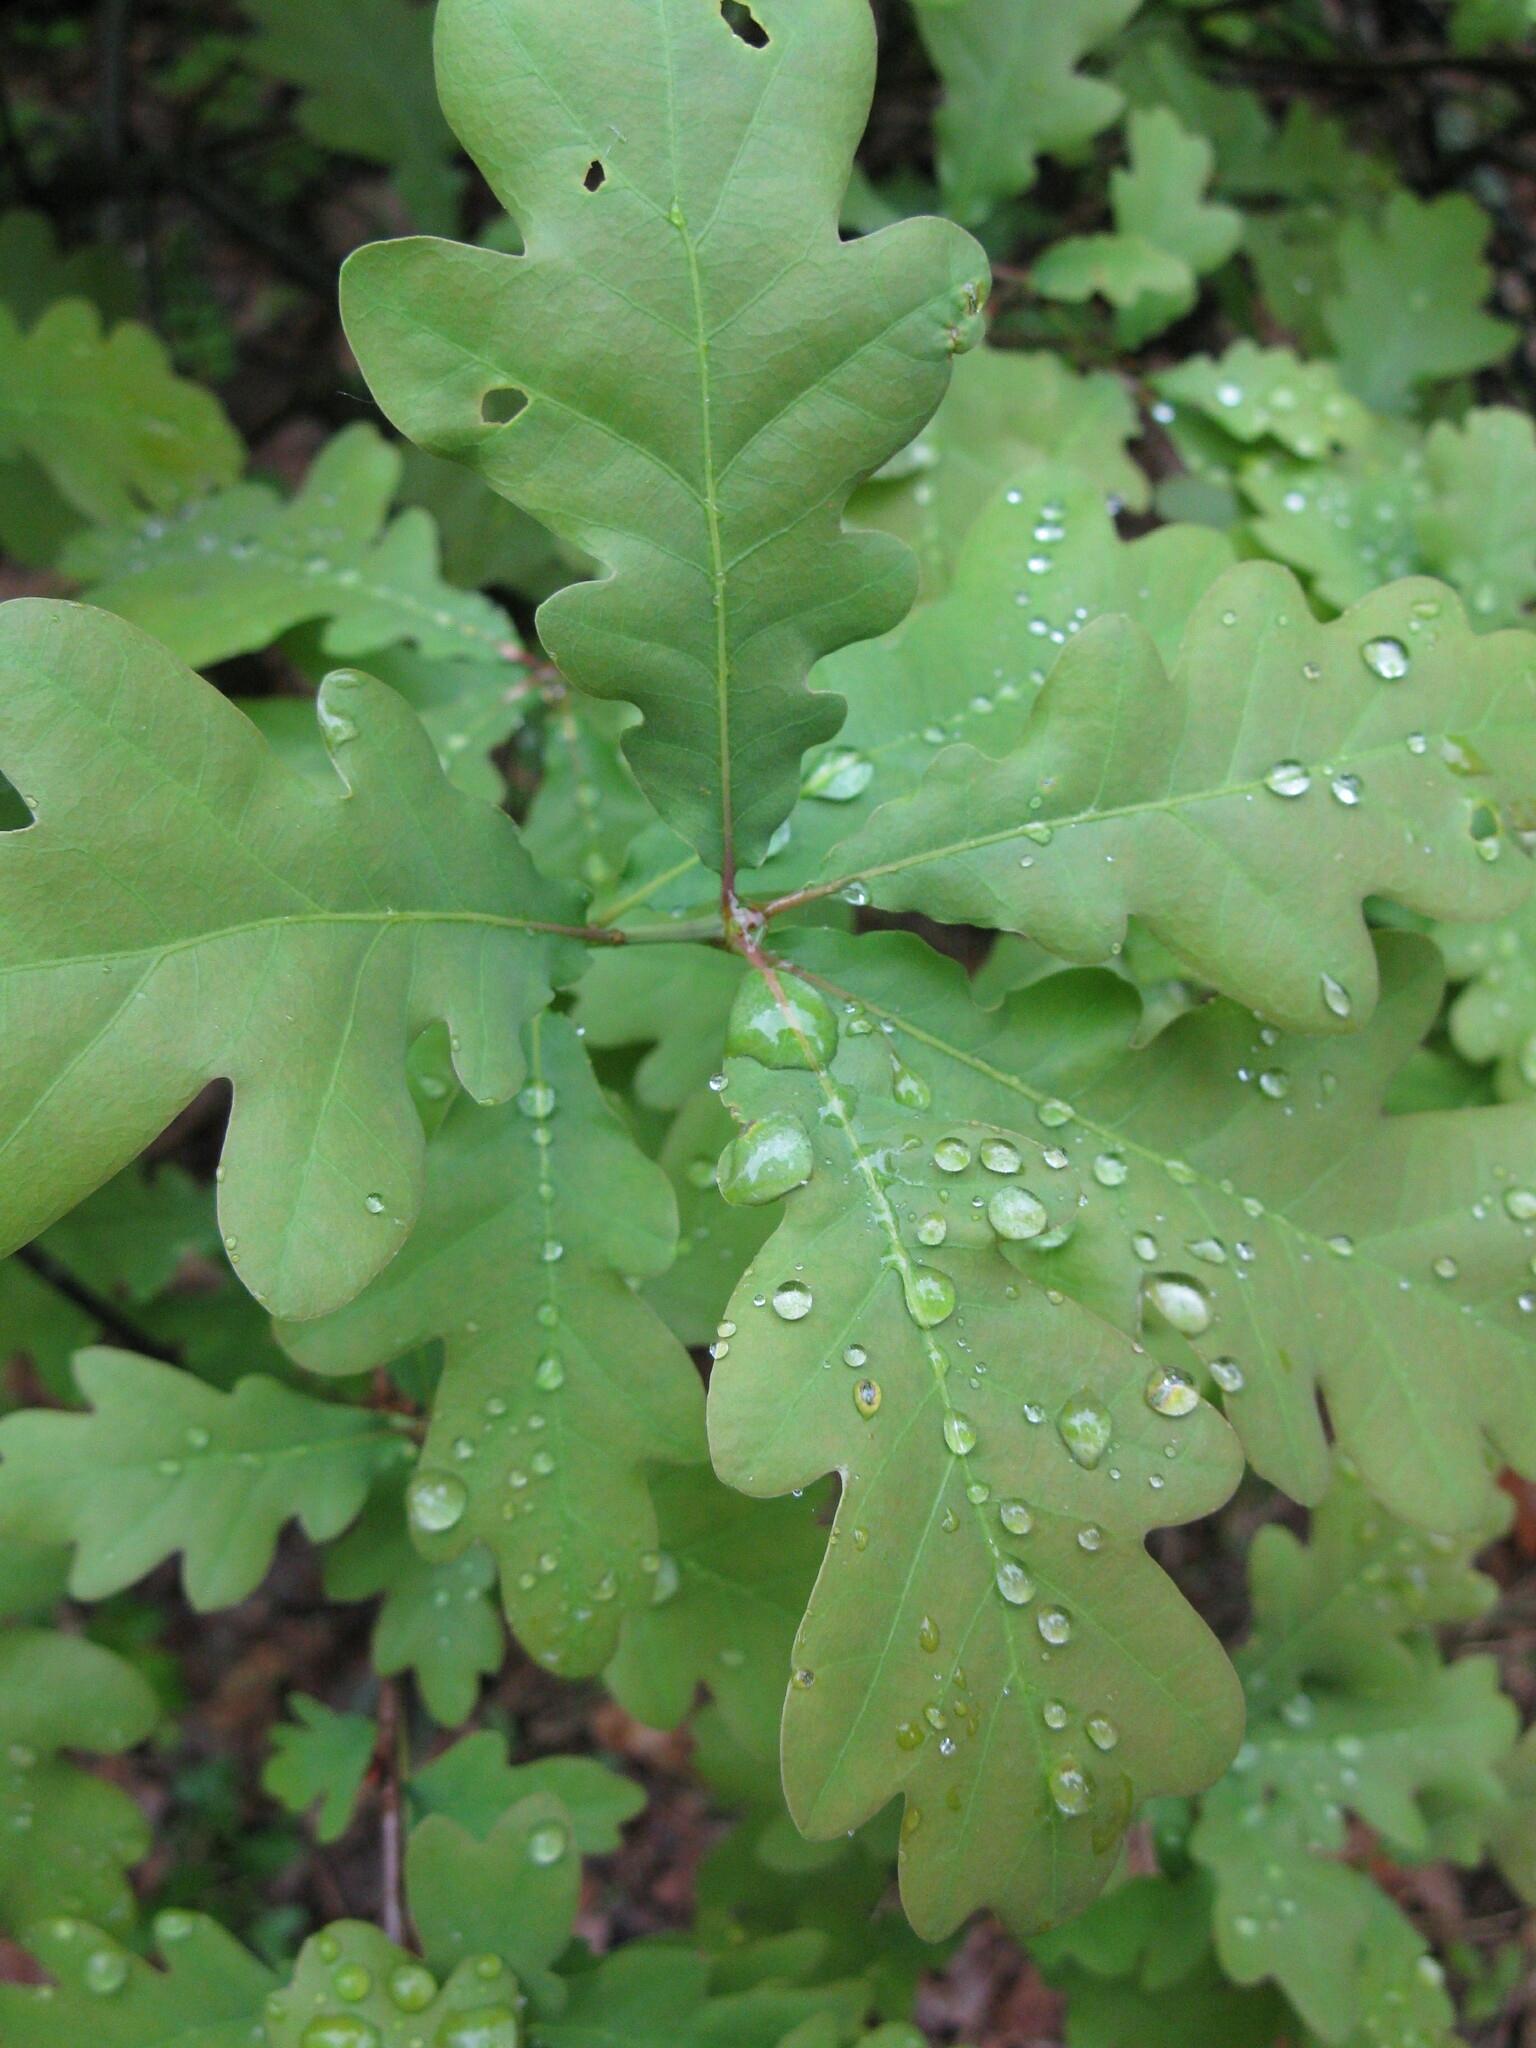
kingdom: Plantae
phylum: Tracheophyta
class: Magnoliopsida
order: Fagales
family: Fagaceae
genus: Quercus
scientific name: Quercus robur
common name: Pedunculate oak
